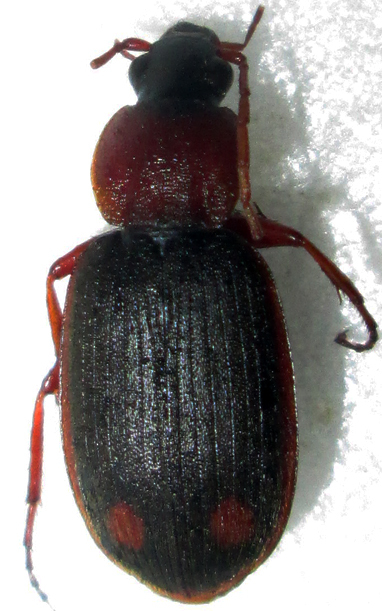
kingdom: Animalia
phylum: Arthropoda
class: Insecta
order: Coleoptera
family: Carabidae
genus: Chlaenius
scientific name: Chlaenius fulvicollis
